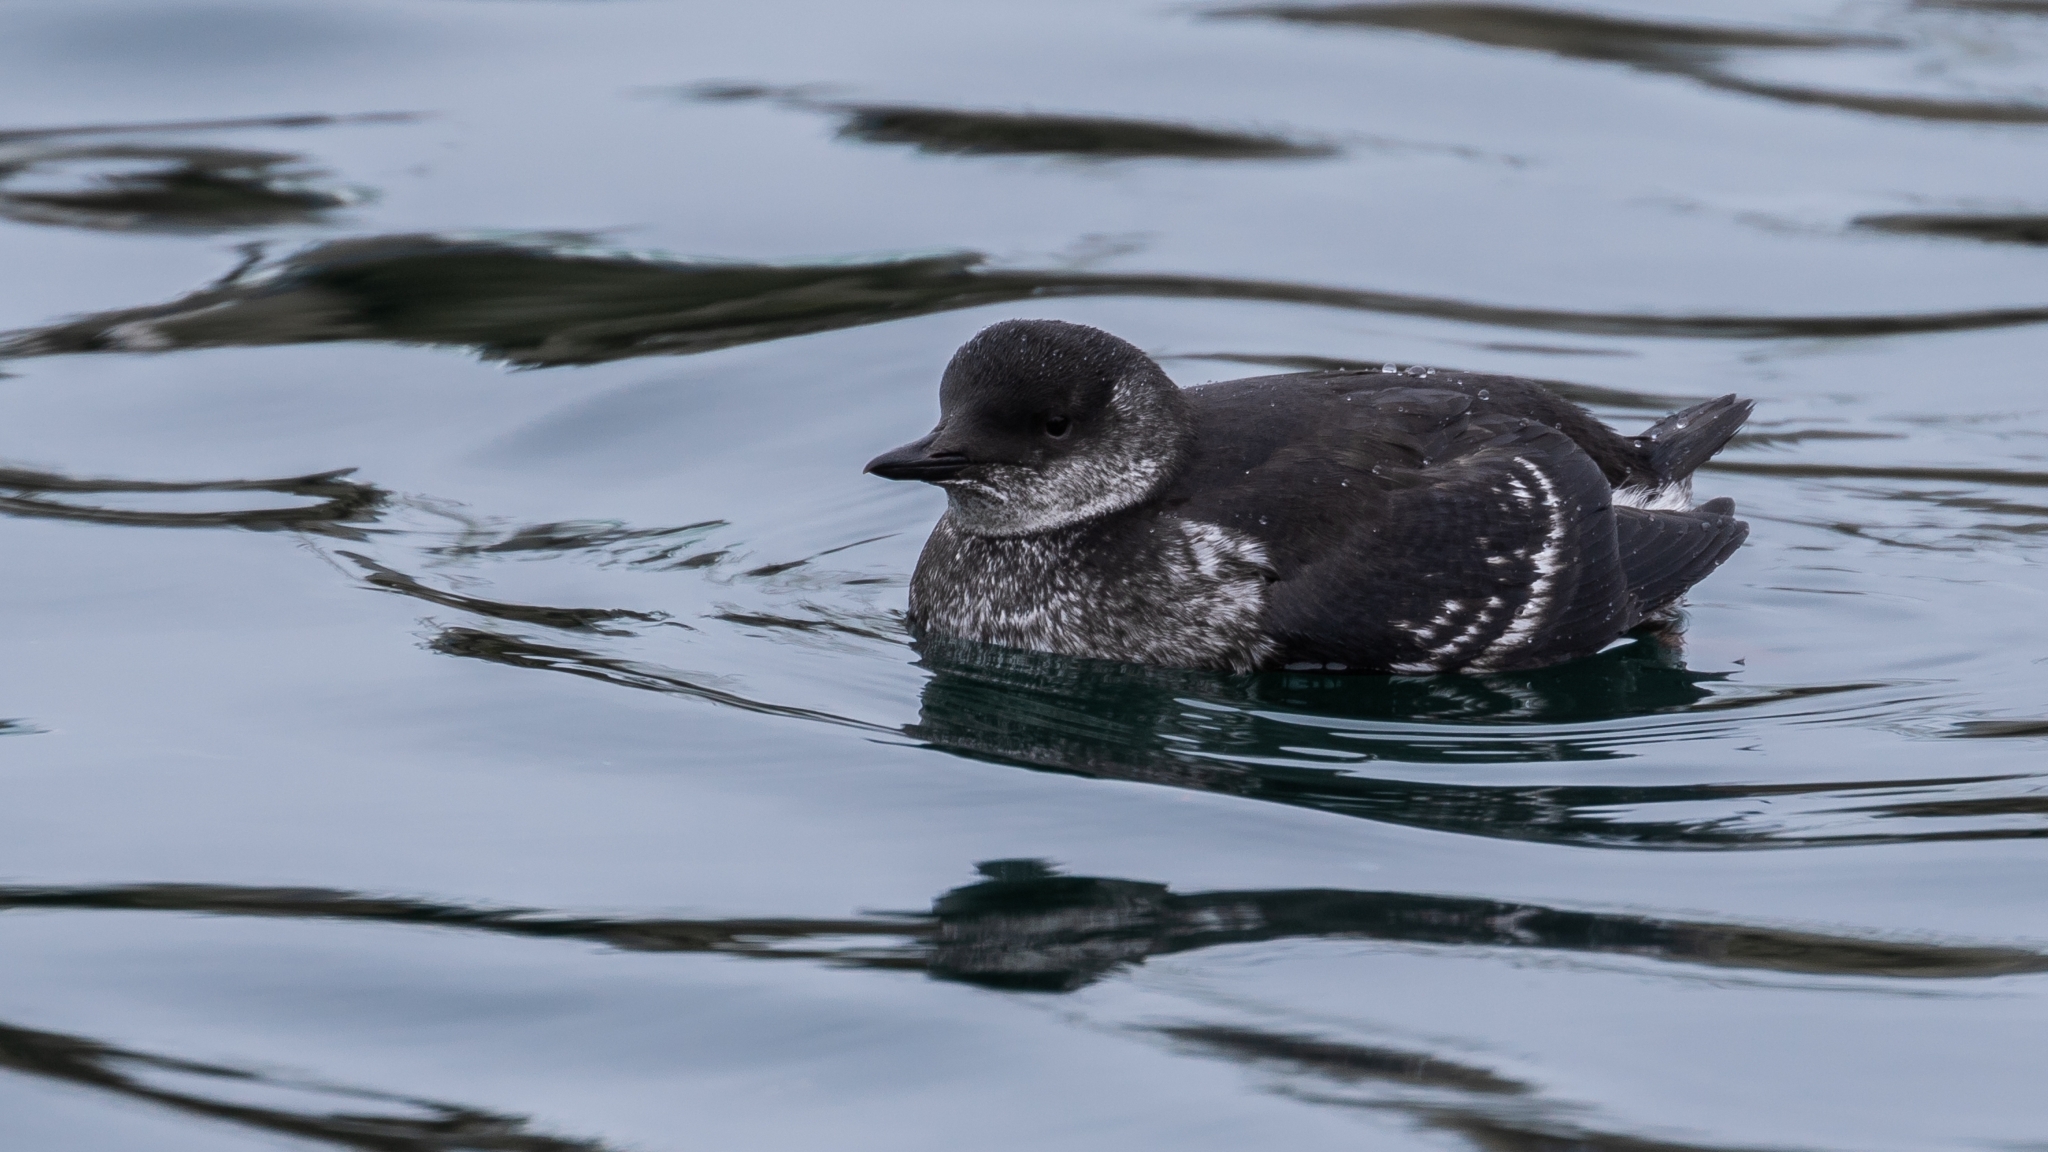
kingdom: Animalia
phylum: Chordata
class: Aves
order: Charadriiformes
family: Alcidae
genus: Cepphus
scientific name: Cepphus grylle
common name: Black guillemot
